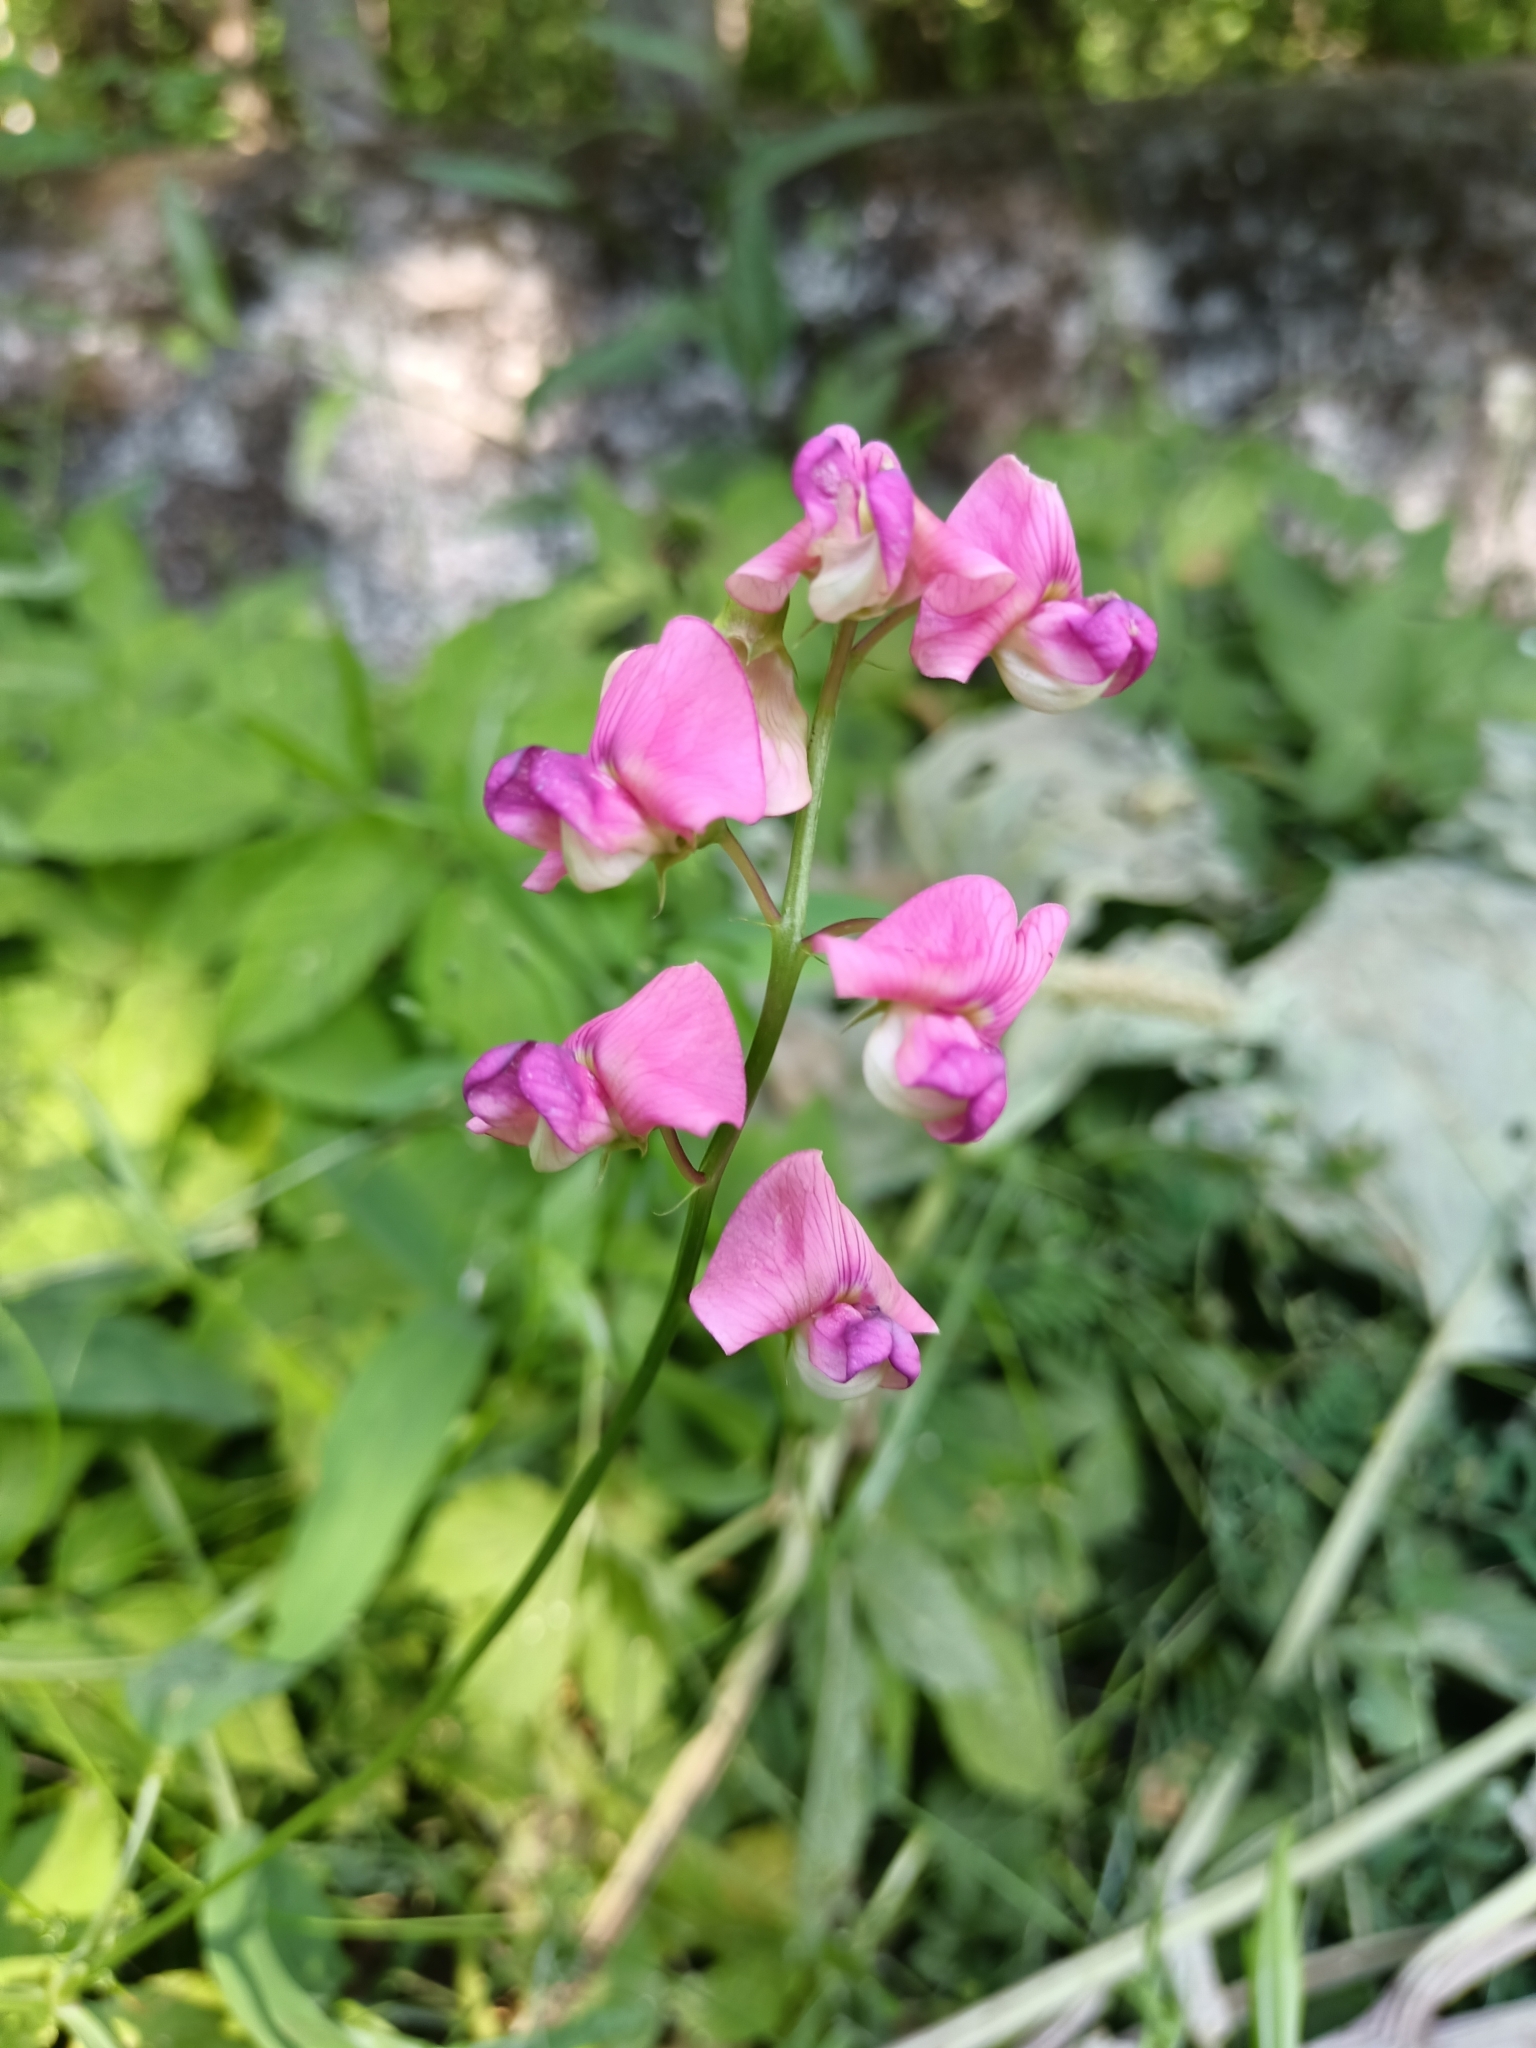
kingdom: Plantae
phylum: Tracheophyta
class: Magnoliopsida
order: Fabales
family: Fabaceae
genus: Lathyrus
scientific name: Lathyrus sylvestris
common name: Flat pea
